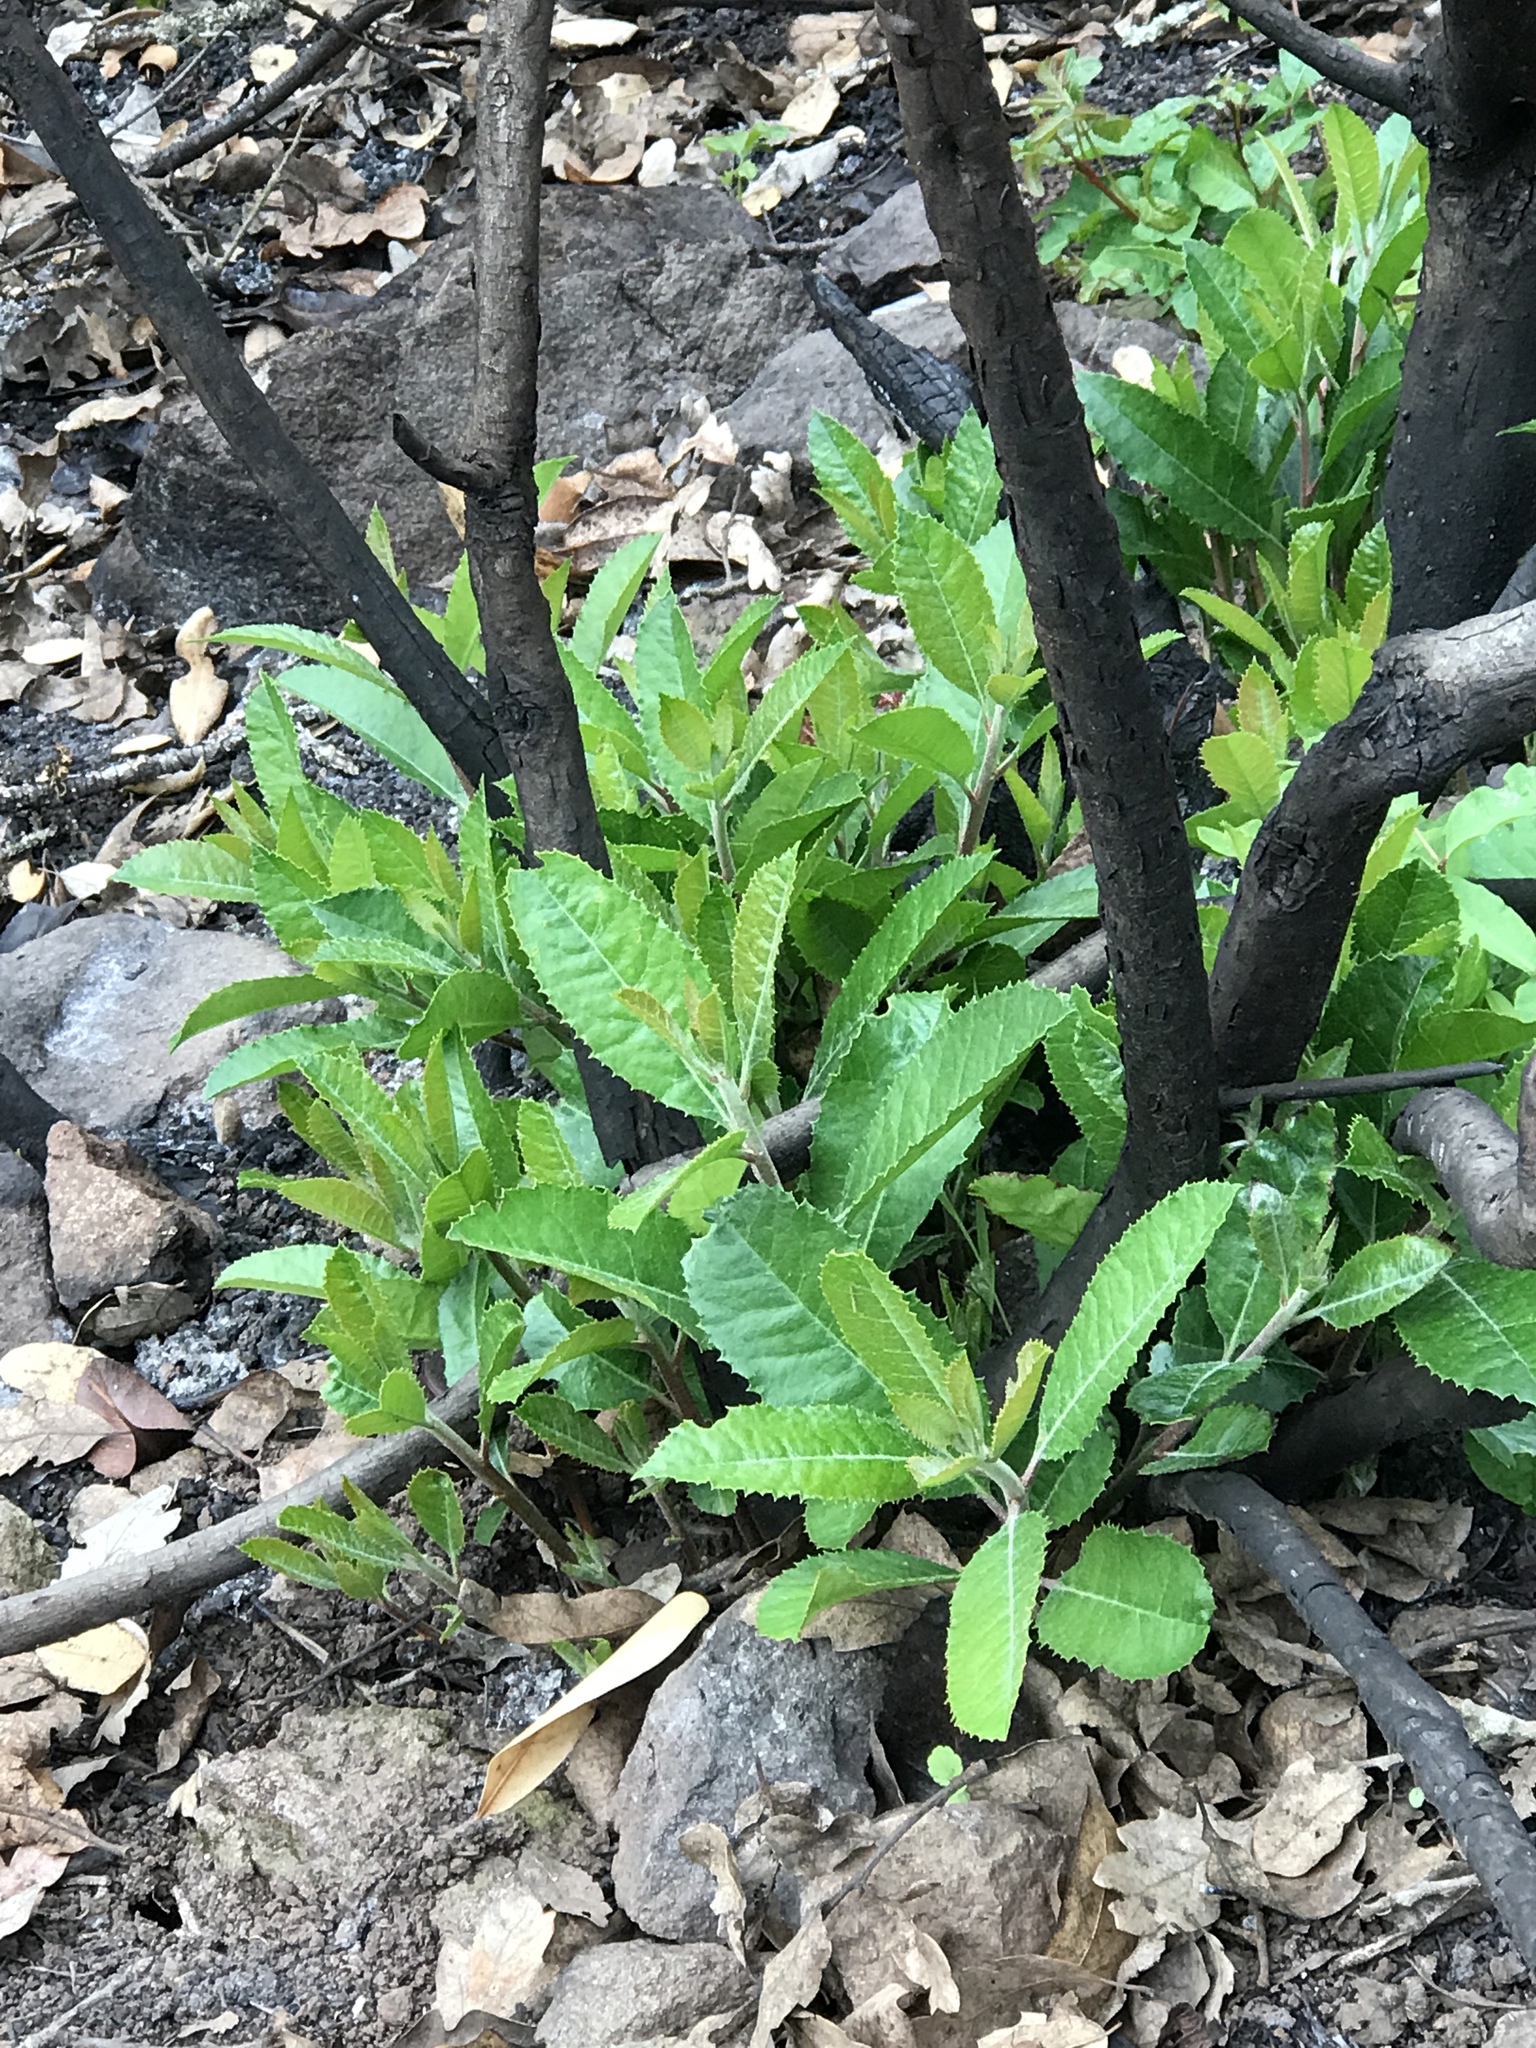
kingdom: Plantae
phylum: Tracheophyta
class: Magnoliopsida
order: Rosales
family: Rosaceae
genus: Heteromeles
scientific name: Heteromeles arbutifolia
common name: California-holly
